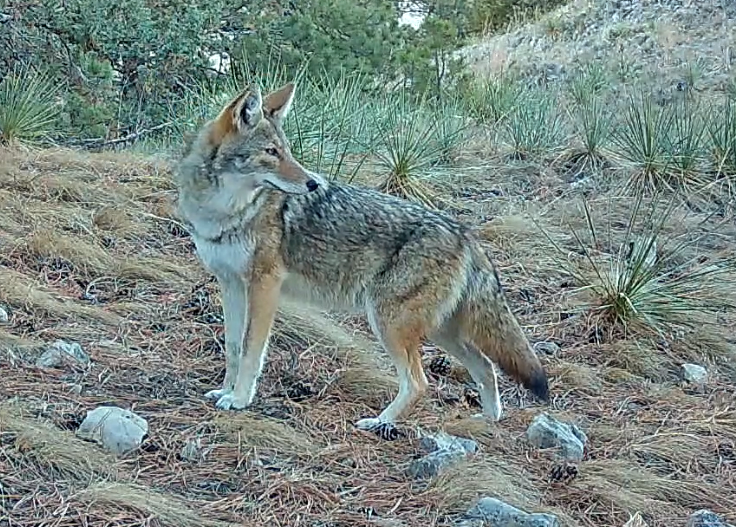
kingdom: Animalia
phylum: Chordata
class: Mammalia
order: Carnivora
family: Canidae
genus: Canis
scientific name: Canis latrans
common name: Coyote
